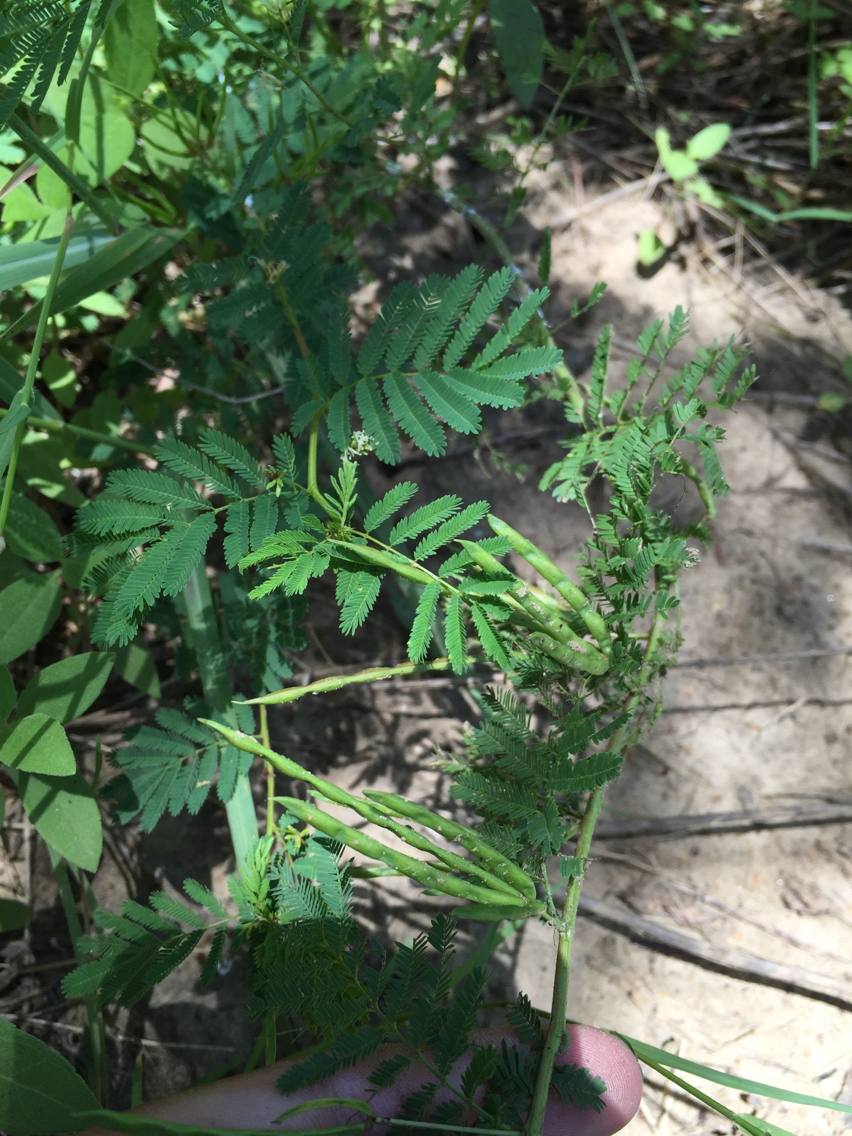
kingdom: Plantae
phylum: Tracheophyta
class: Magnoliopsida
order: Fabales
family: Fabaceae
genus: Desmanthus
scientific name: Desmanthus leptolobus
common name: Prairie-mimosa
